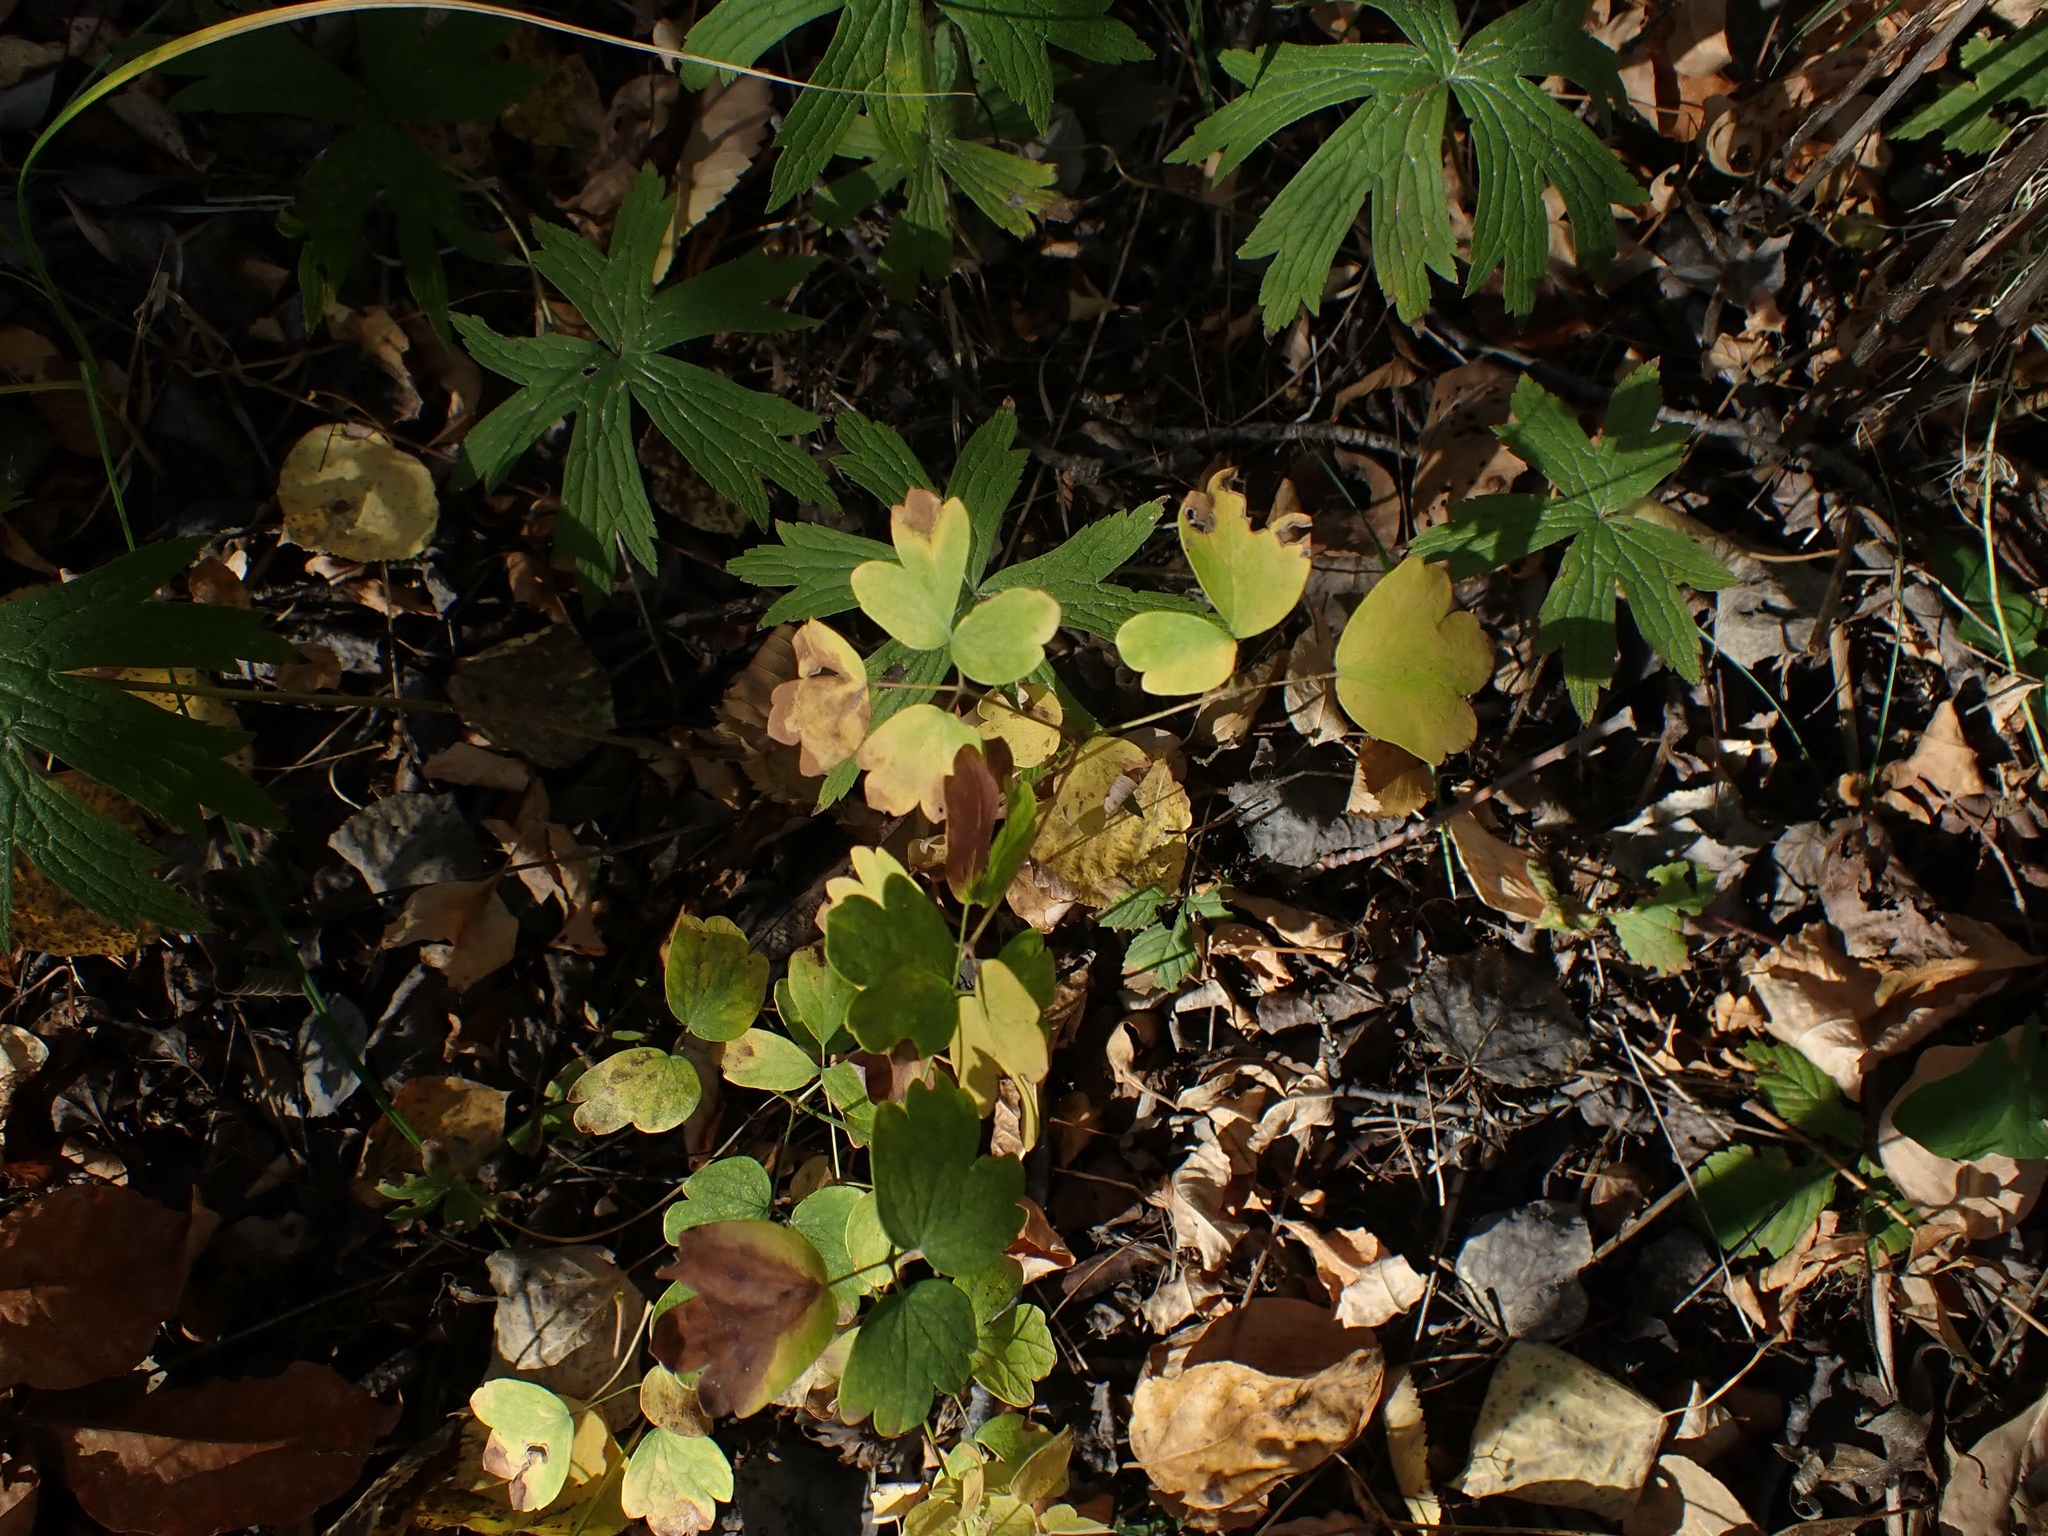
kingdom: Plantae
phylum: Tracheophyta
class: Magnoliopsida
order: Ranunculales
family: Ranunculaceae
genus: Thalictrum
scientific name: Thalictrum venulosum
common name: Early meadow-rue
